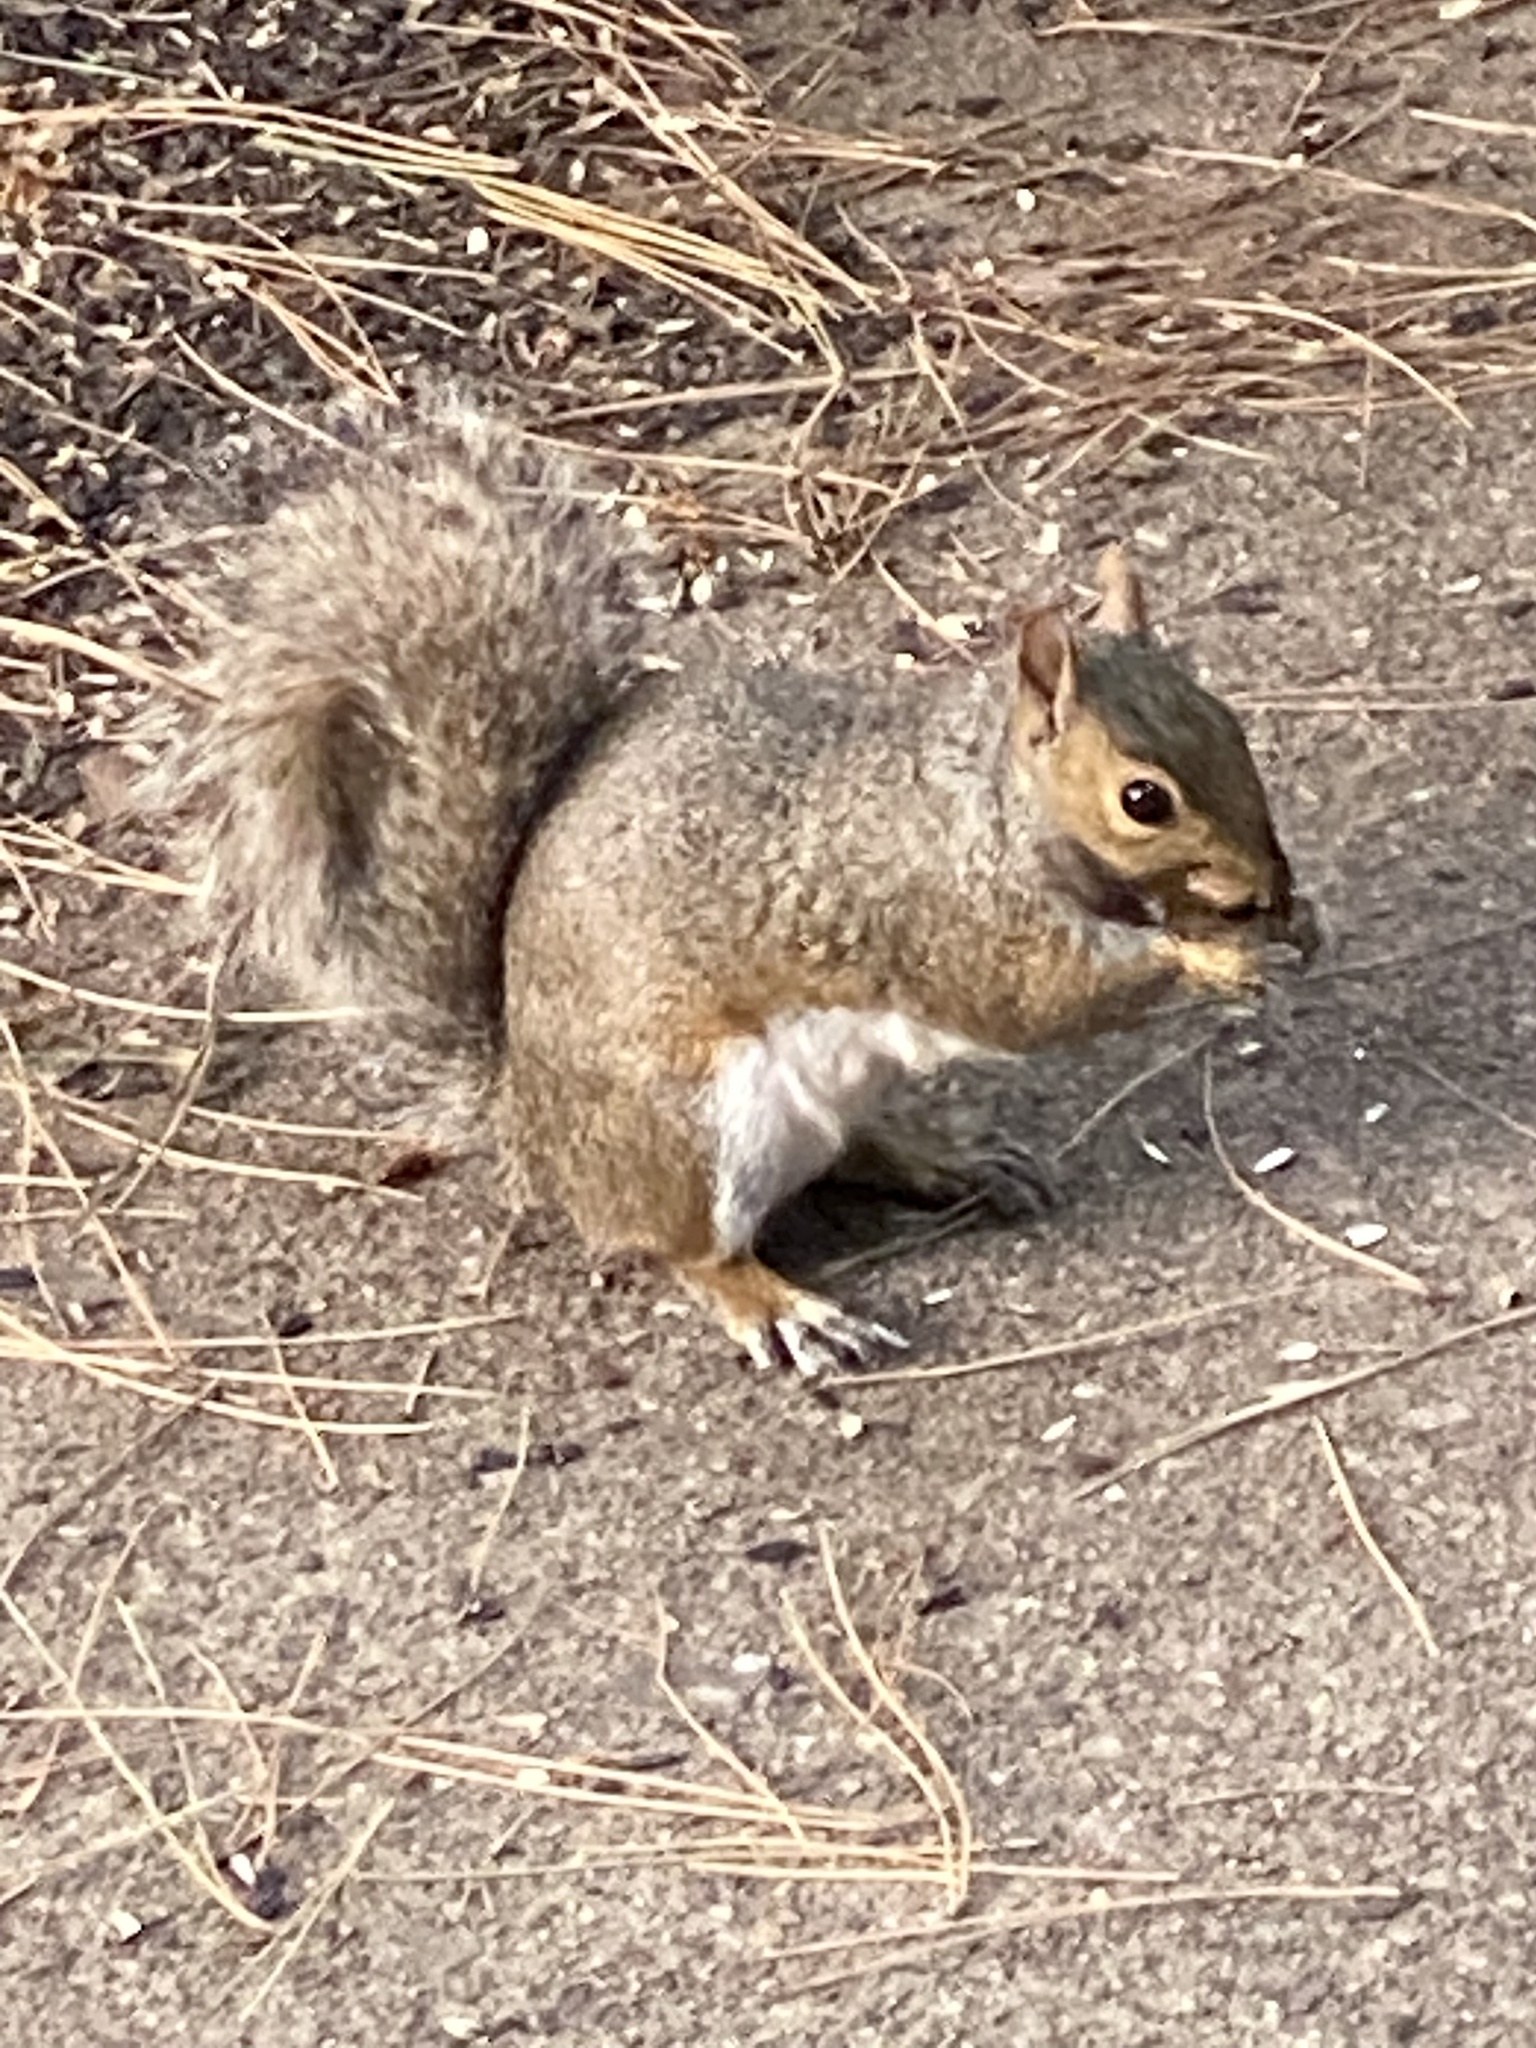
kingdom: Animalia
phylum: Chordata
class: Mammalia
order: Rodentia
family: Sciuridae
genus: Sciurus
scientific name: Sciurus carolinensis
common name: Eastern gray squirrel
